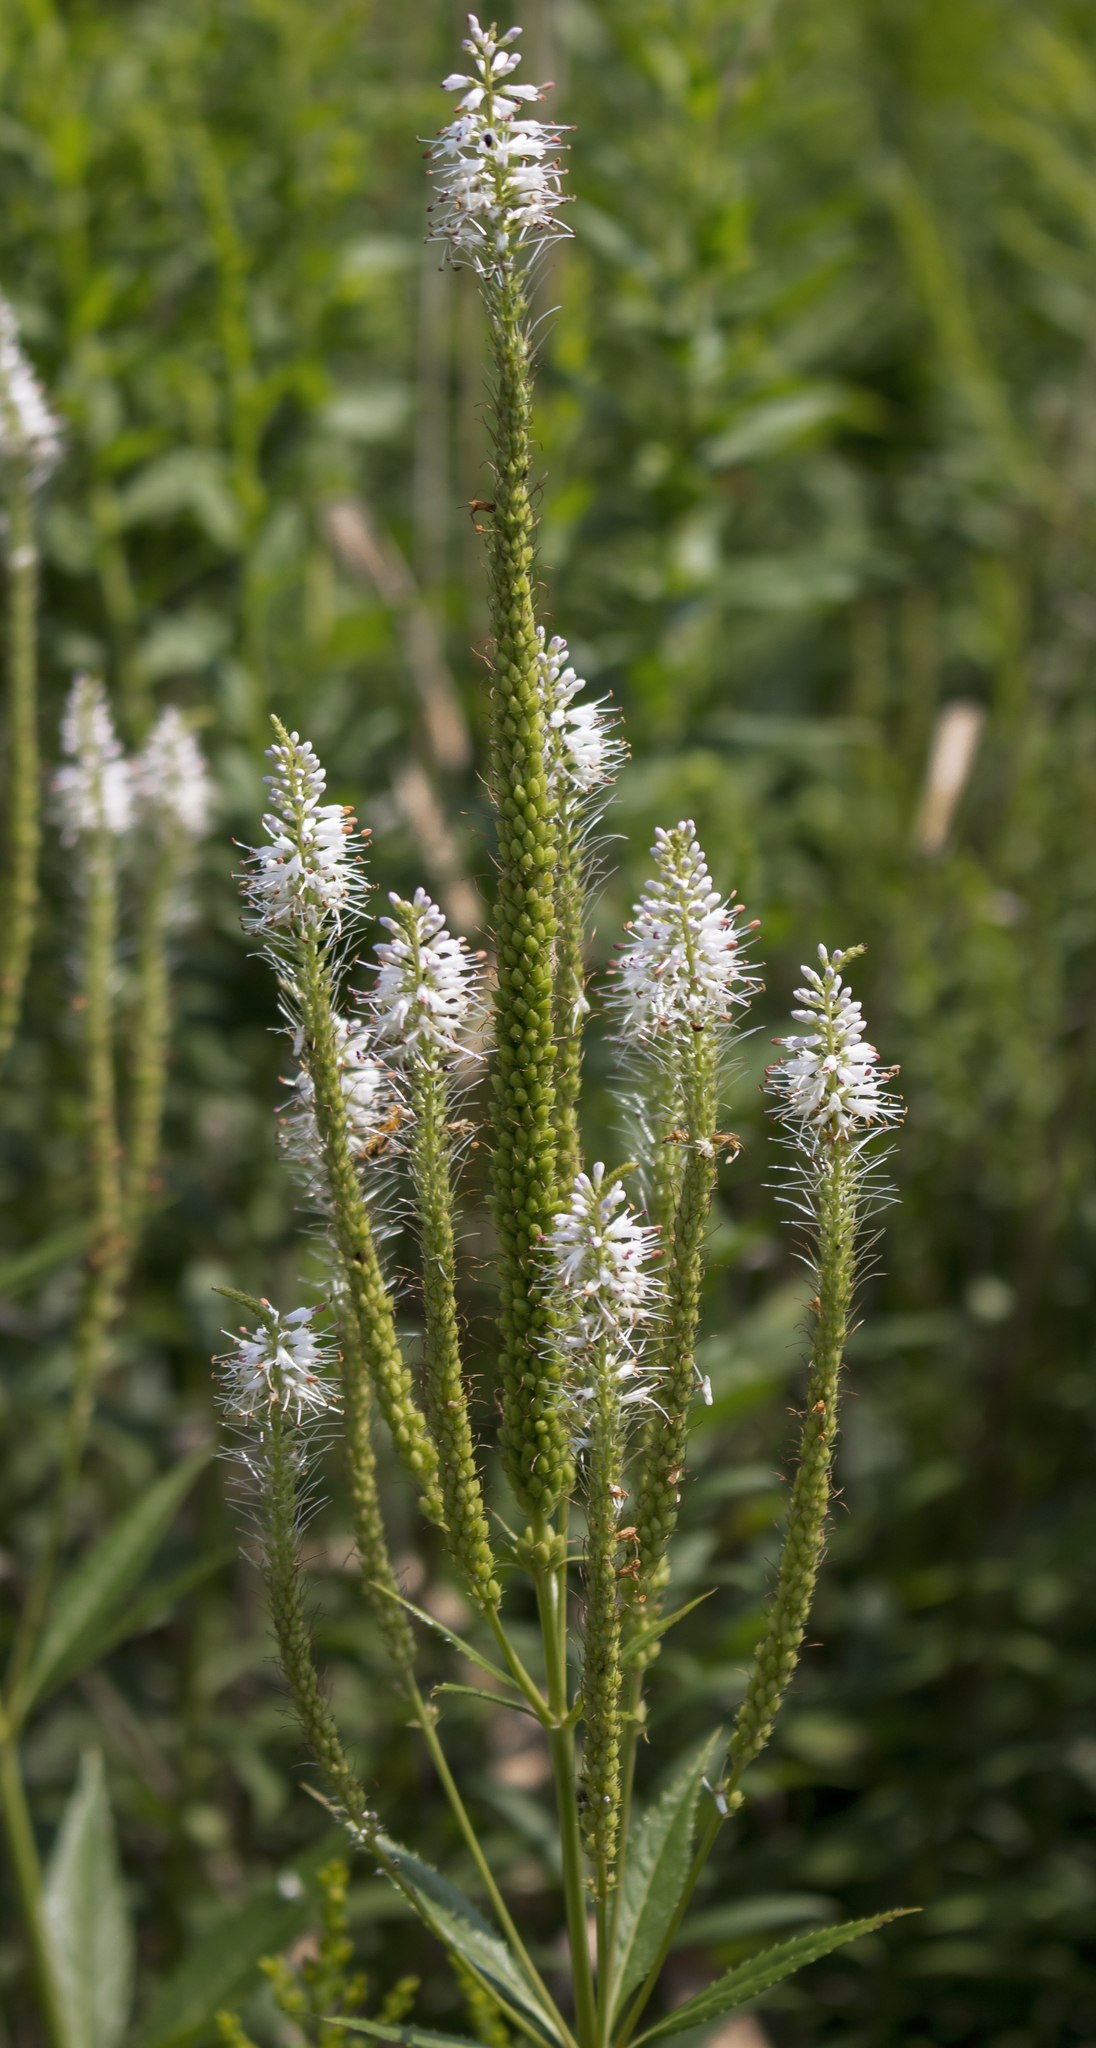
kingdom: Plantae
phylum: Tracheophyta
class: Magnoliopsida
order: Lamiales
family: Plantaginaceae
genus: Veronicastrum
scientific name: Veronicastrum virginicum
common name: Blackroot
